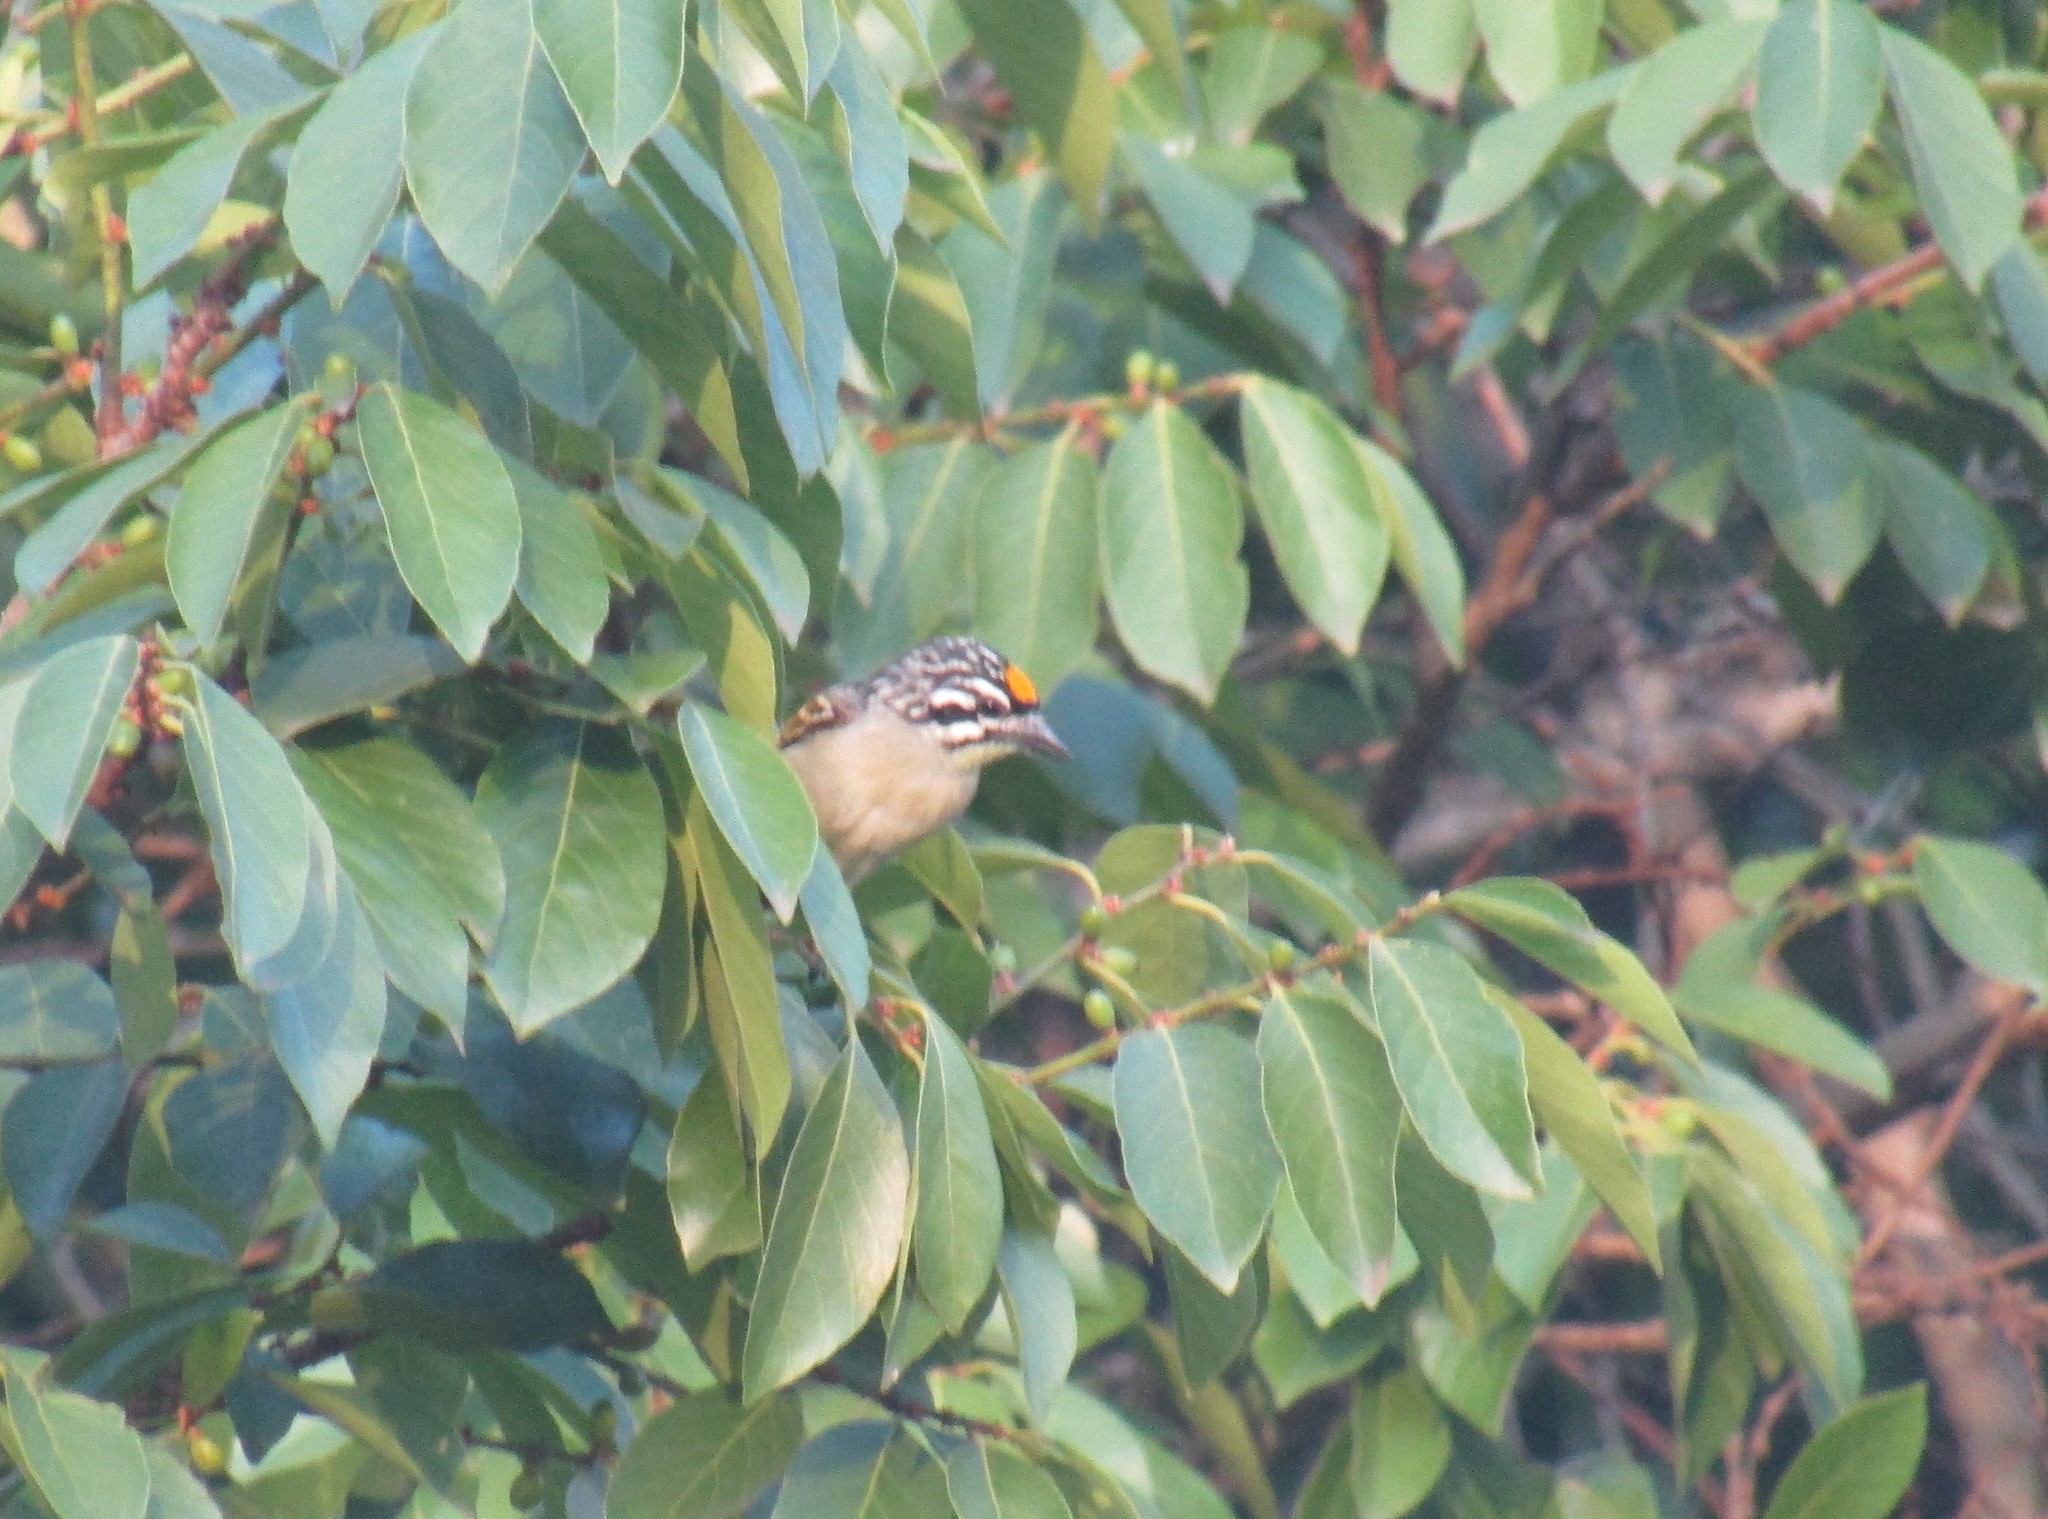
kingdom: Animalia
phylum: Chordata
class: Aves
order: Piciformes
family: Lybiidae
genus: Pogoniulus
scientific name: Pogoniulus chrysoconus
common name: Yellow-fronted tinkerbird
